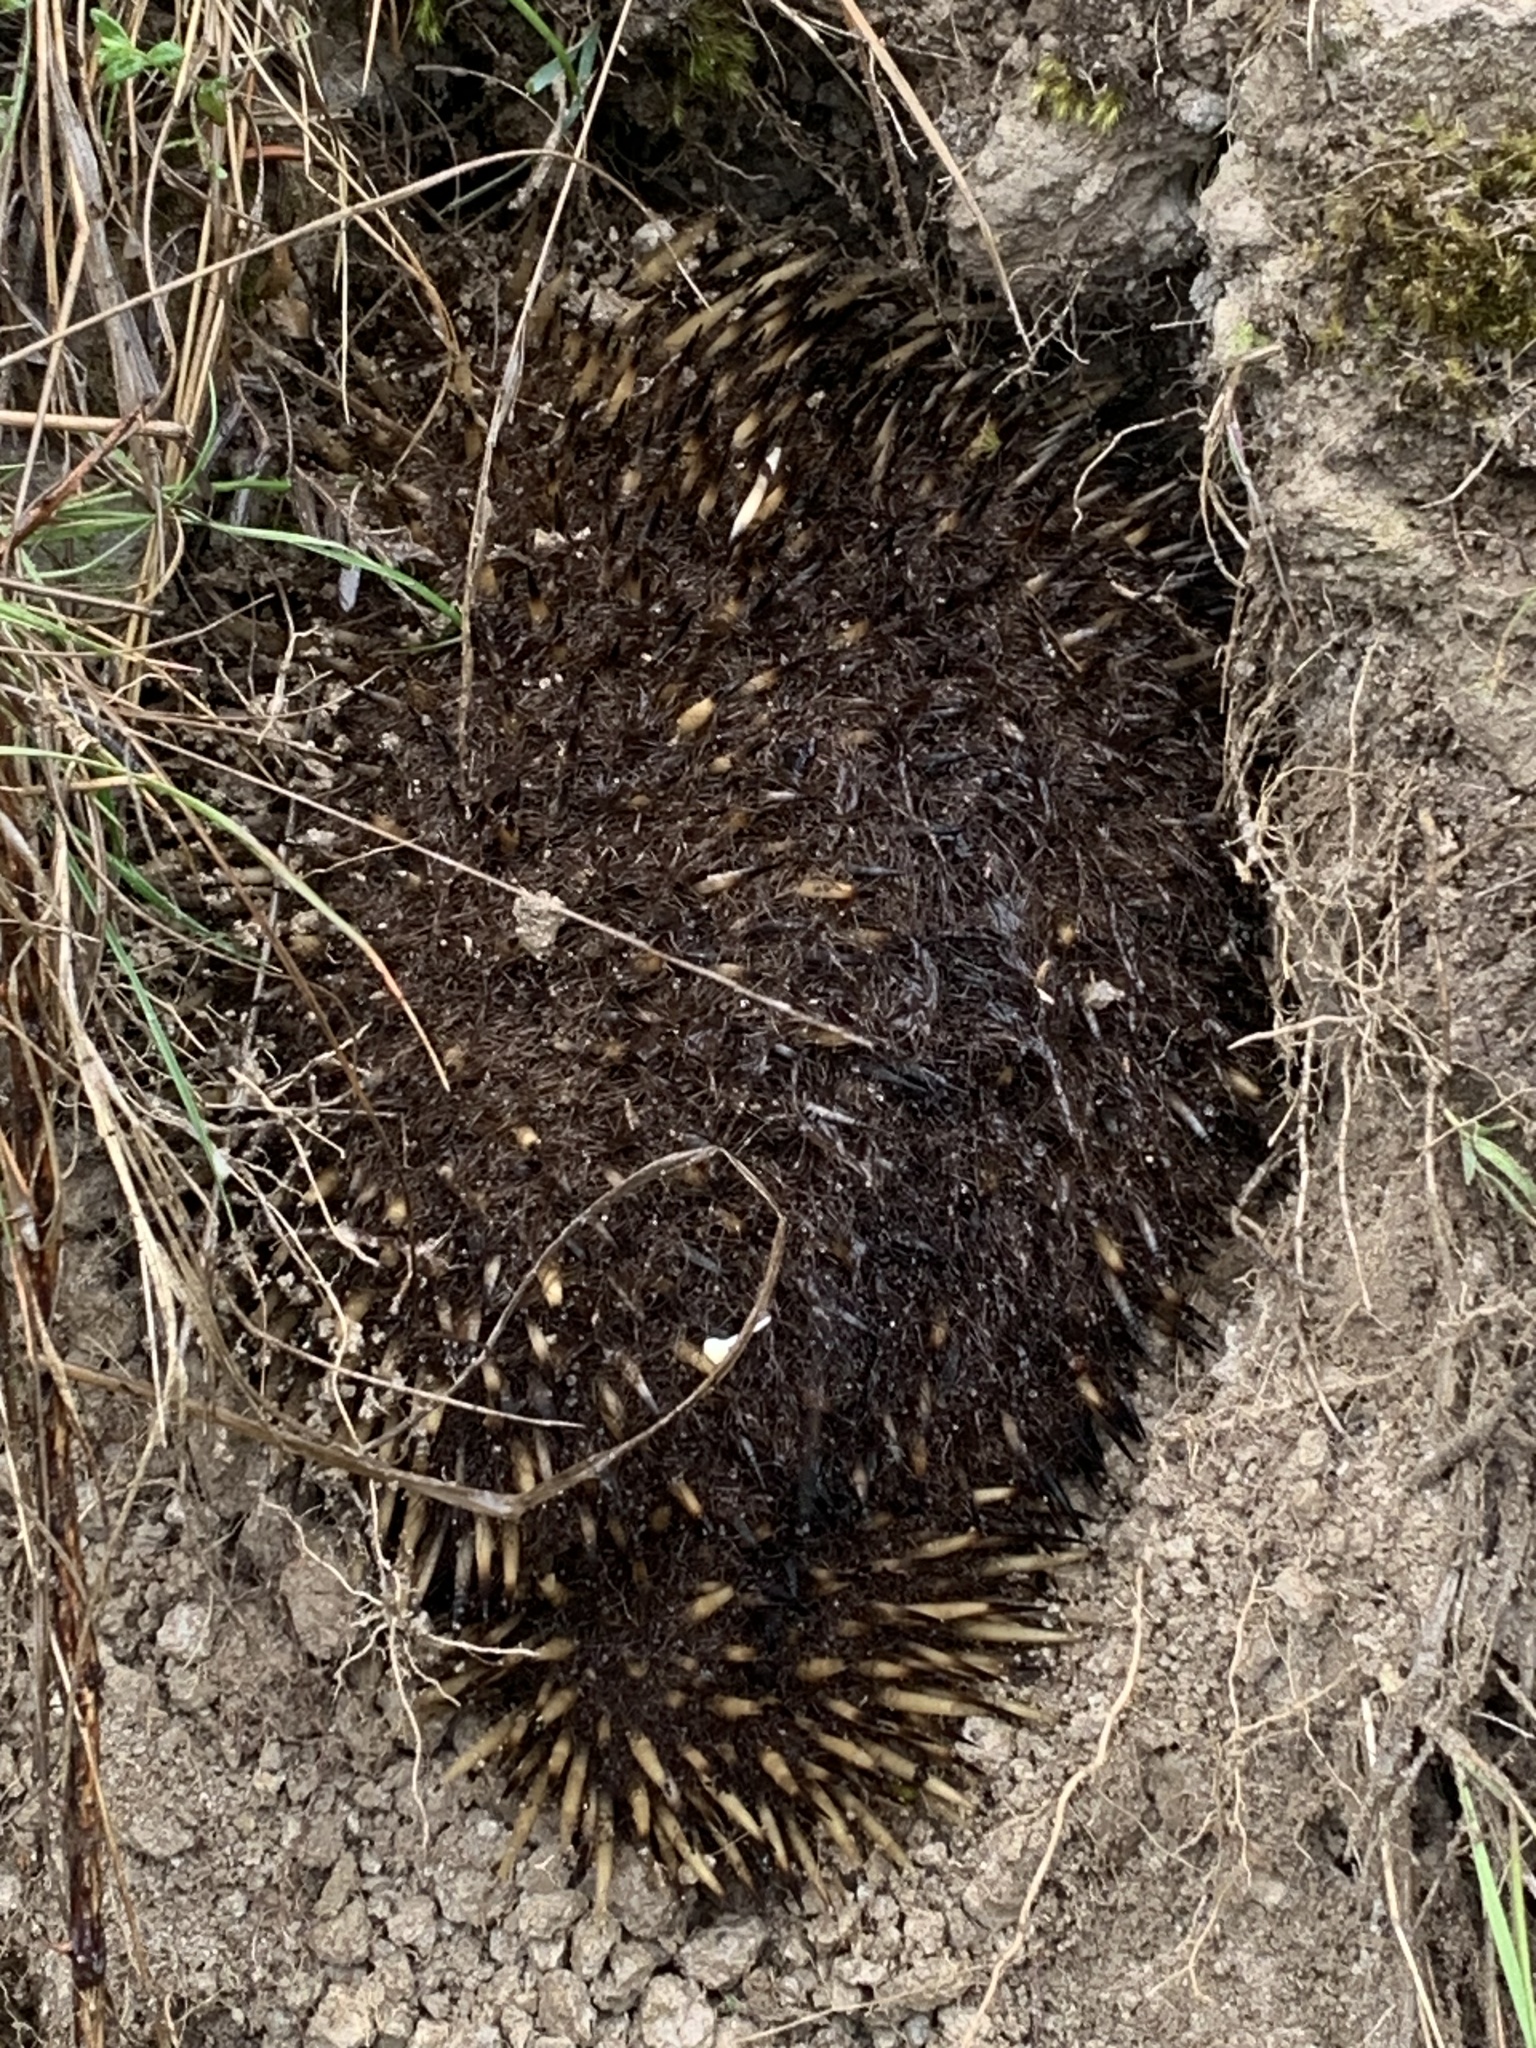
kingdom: Animalia
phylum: Chordata
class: Mammalia
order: Monotremata
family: Tachyglossidae
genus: Tachyglossus
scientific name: Tachyglossus aculeatus
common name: Short-beaked echidna
